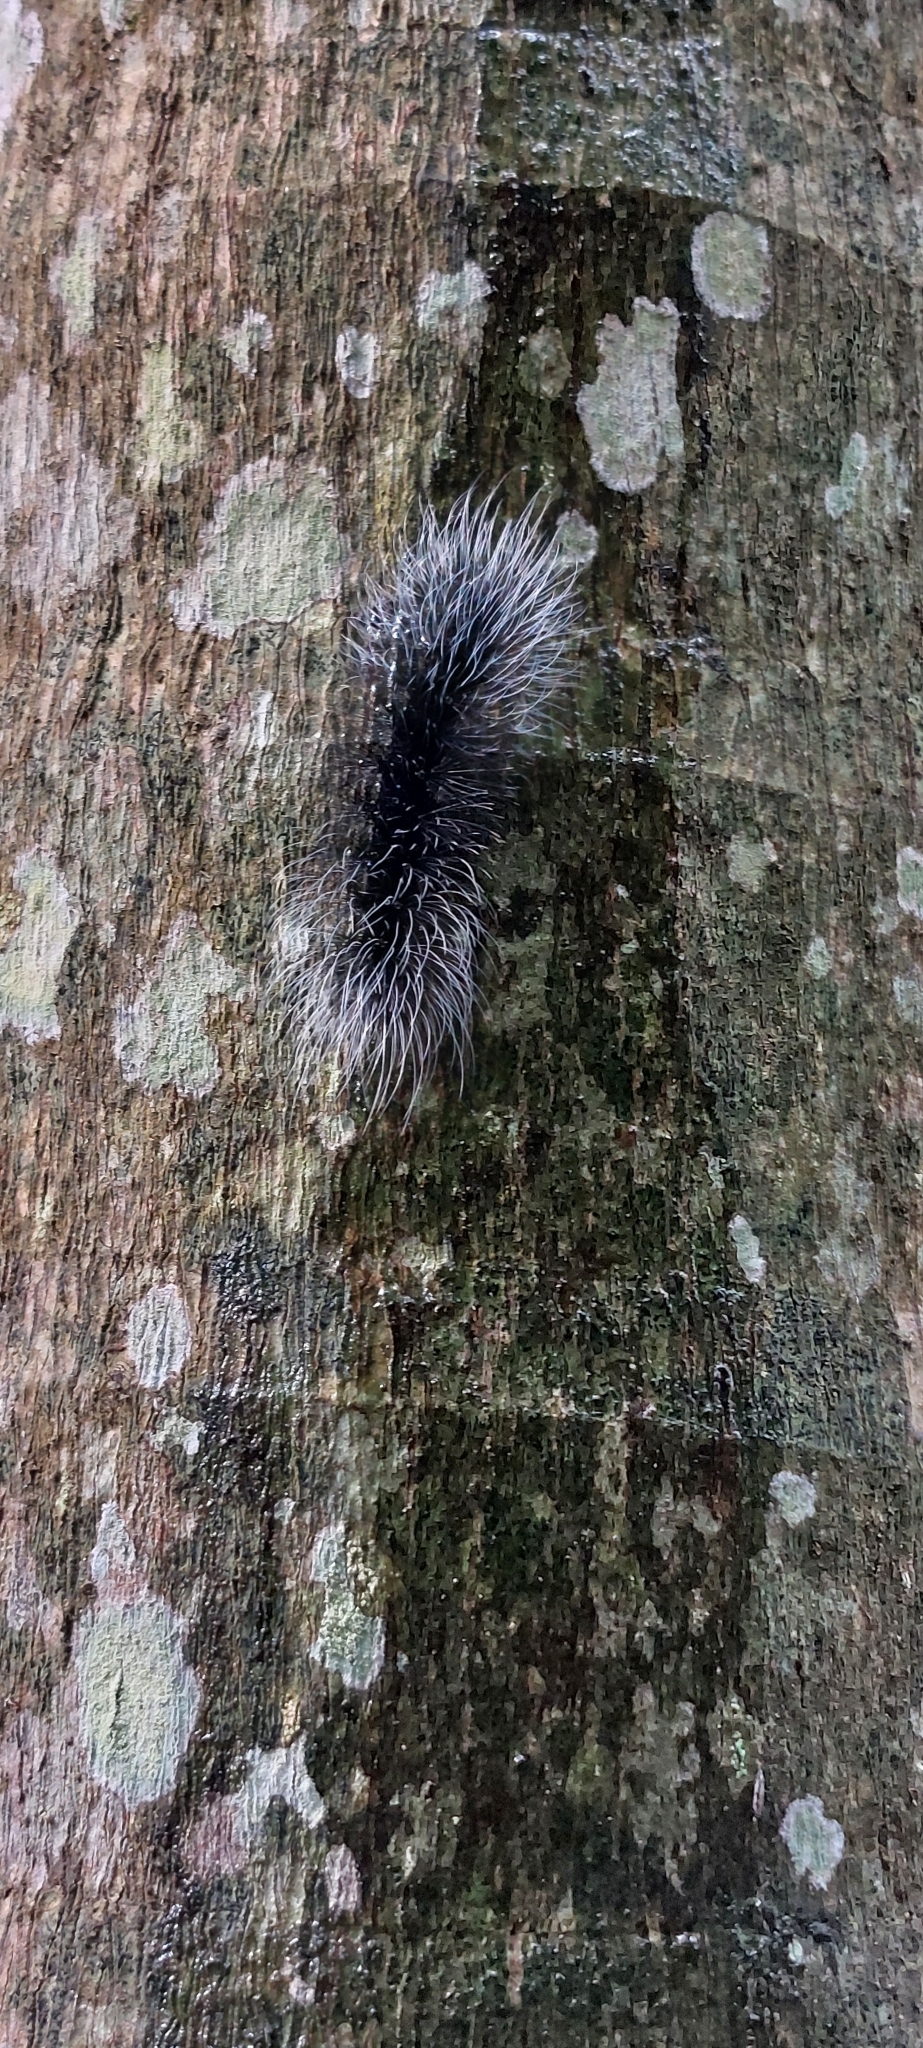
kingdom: Animalia
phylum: Arthropoda
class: Insecta
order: Lepidoptera
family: Erebidae
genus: Apistosia
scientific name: Apistosia judas
